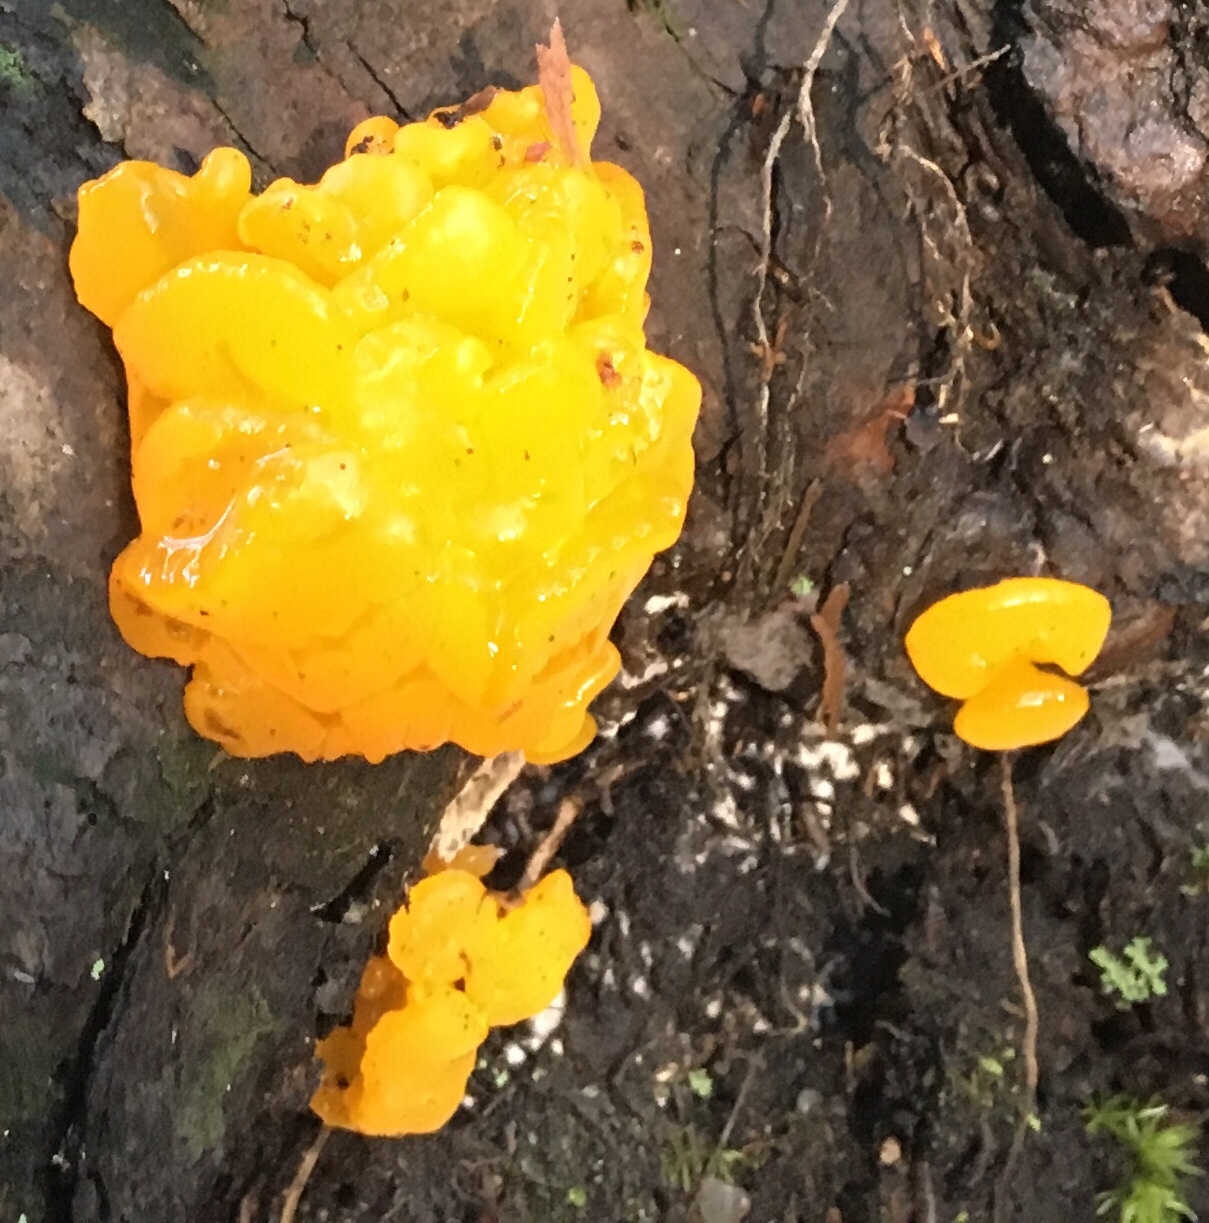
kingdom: Fungi
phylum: Basidiomycota
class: Dacrymycetes
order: Dacrymycetales
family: Dacrymycetaceae
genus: Dacrymyces
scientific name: Dacrymyces chrysospermus
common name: Orange jelly spot
